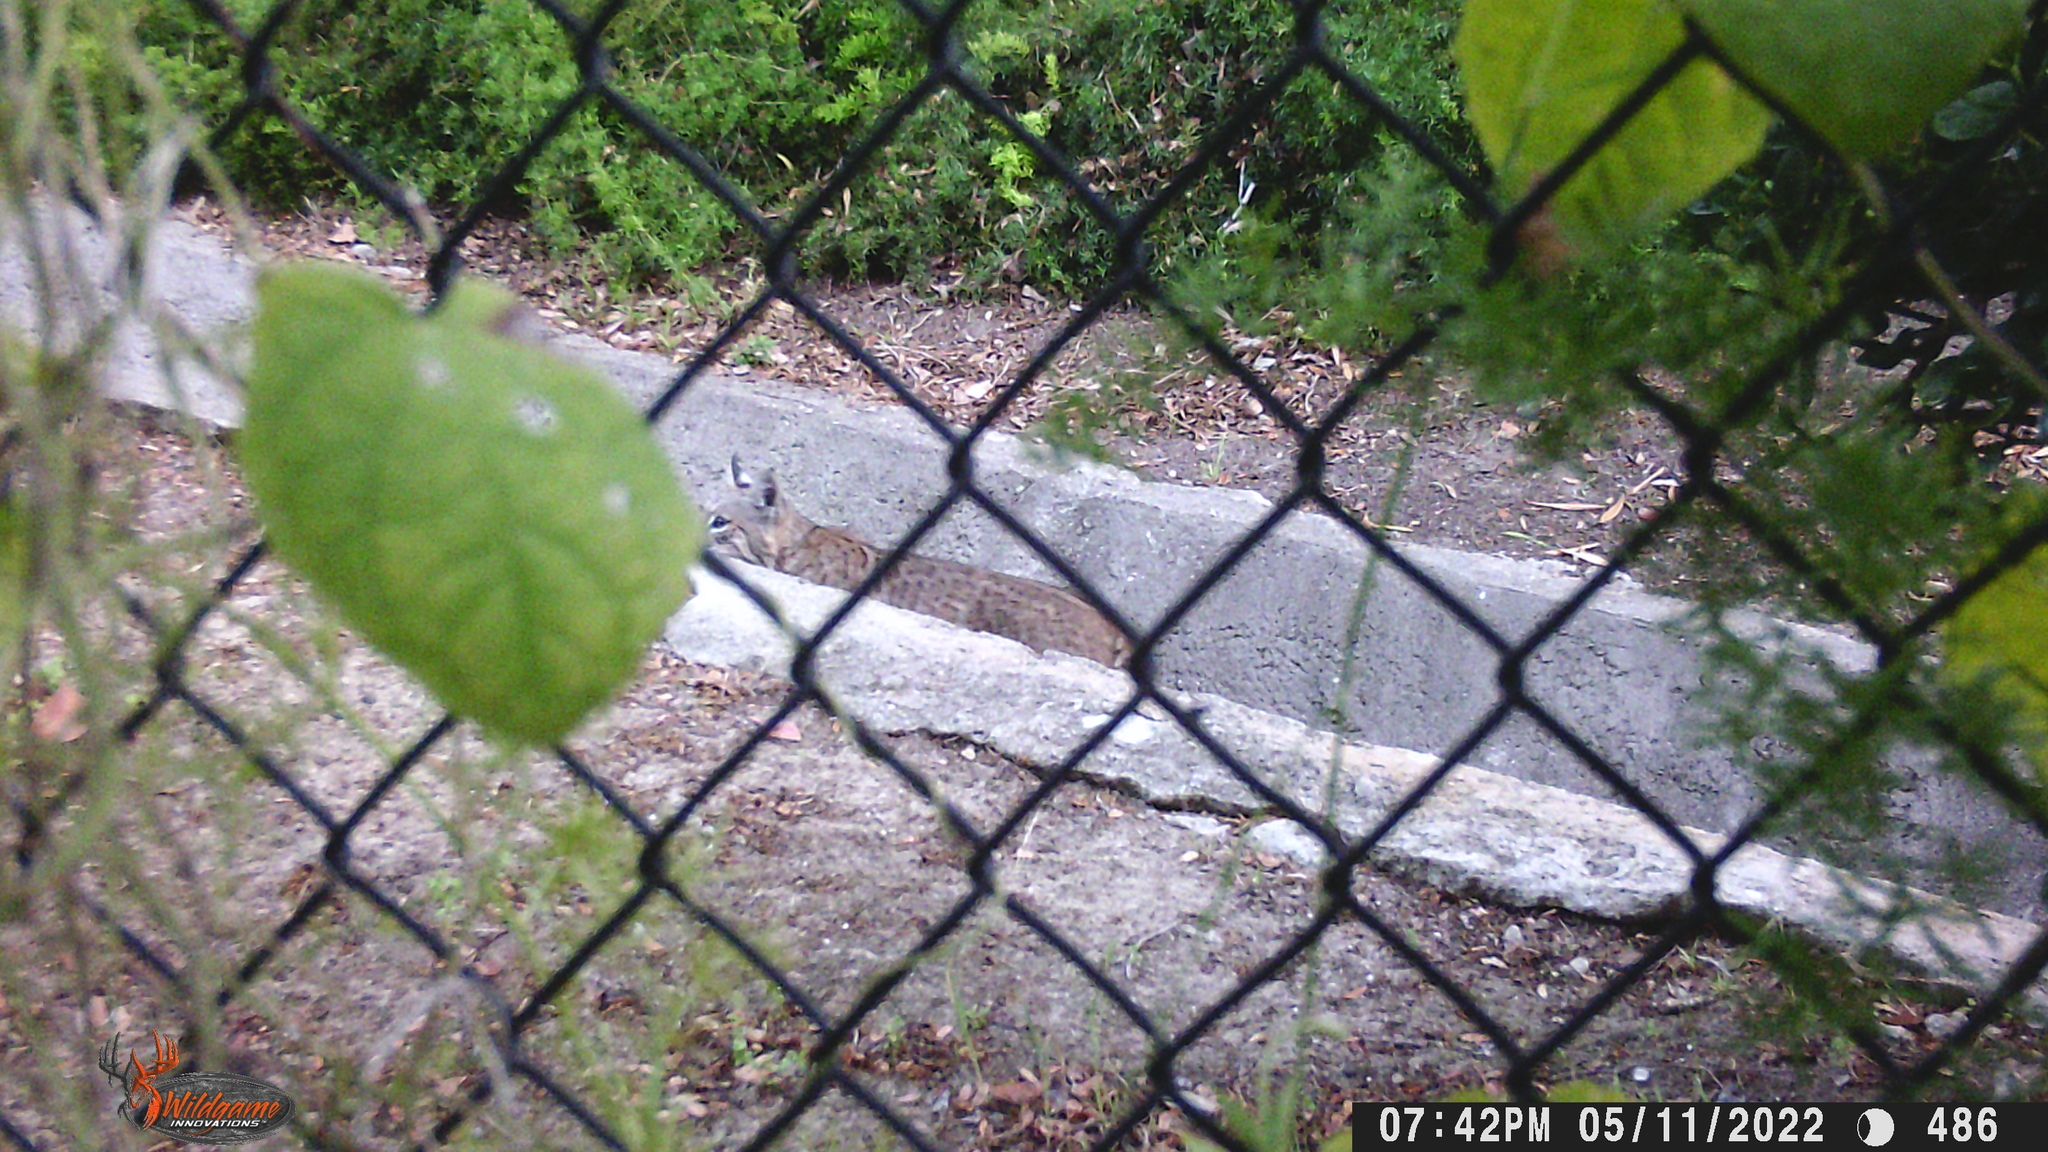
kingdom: Animalia
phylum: Chordata
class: Mammalia
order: Carnivora
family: Felidae
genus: Lynx
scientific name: Lynx rufus
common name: Bobcat
